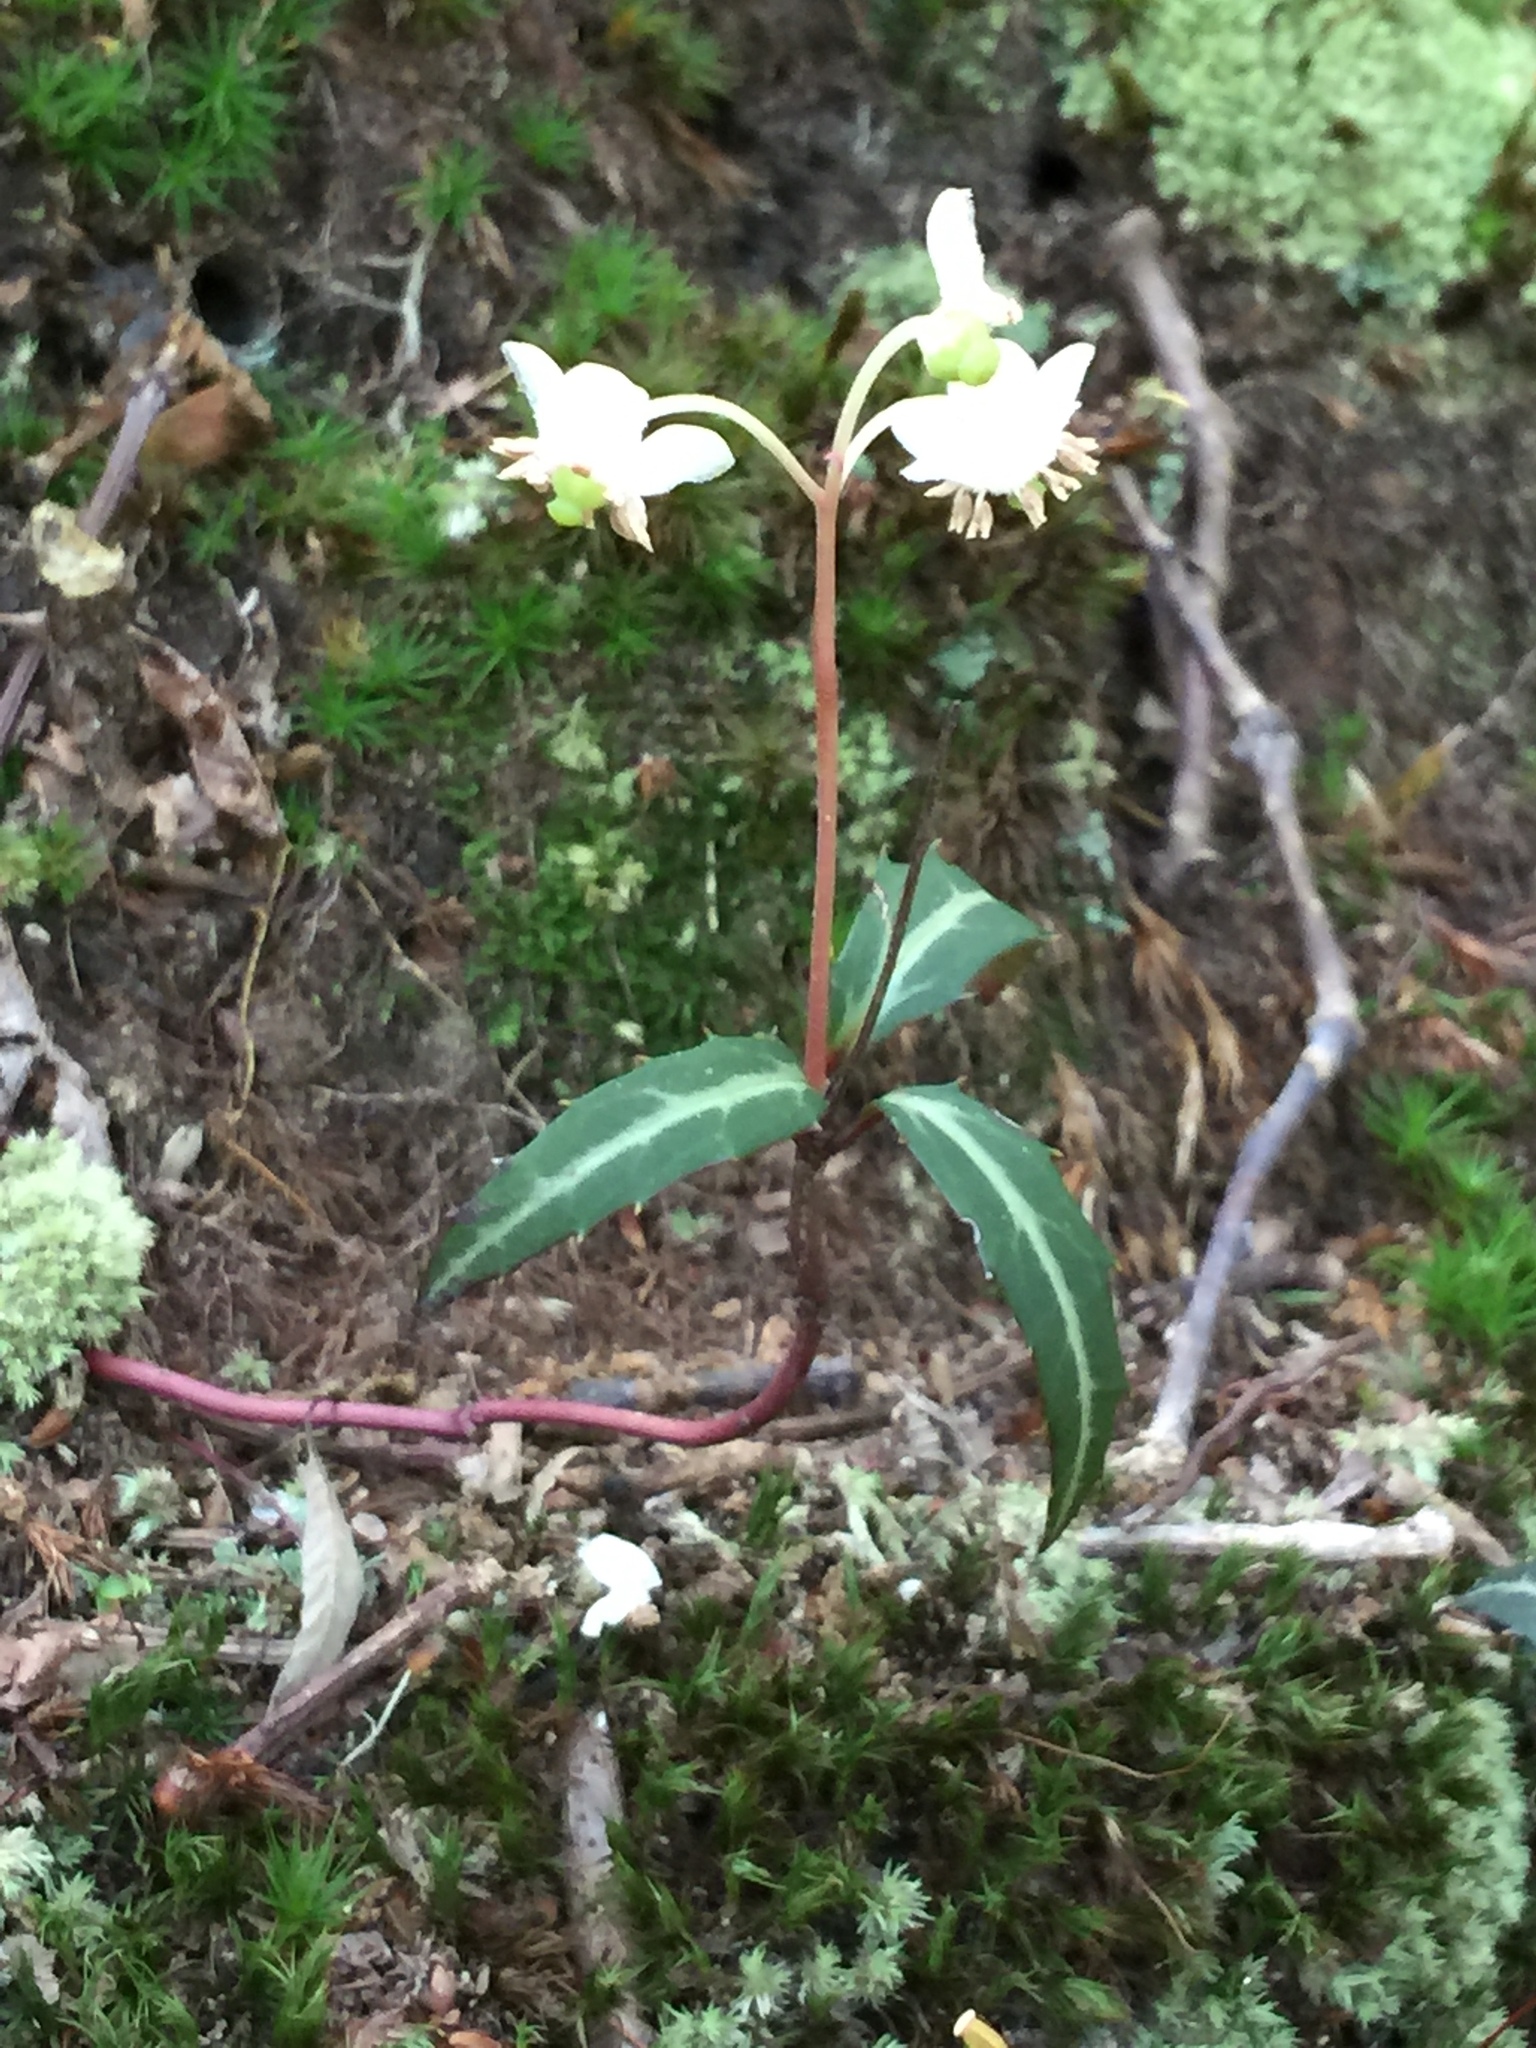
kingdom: Plantae
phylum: Tracheophyta
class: Magnoliopsida
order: Ericales
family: Ericaceae
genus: Chimaphila
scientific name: Chimaphila maculata
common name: Spotted pipsissewa
